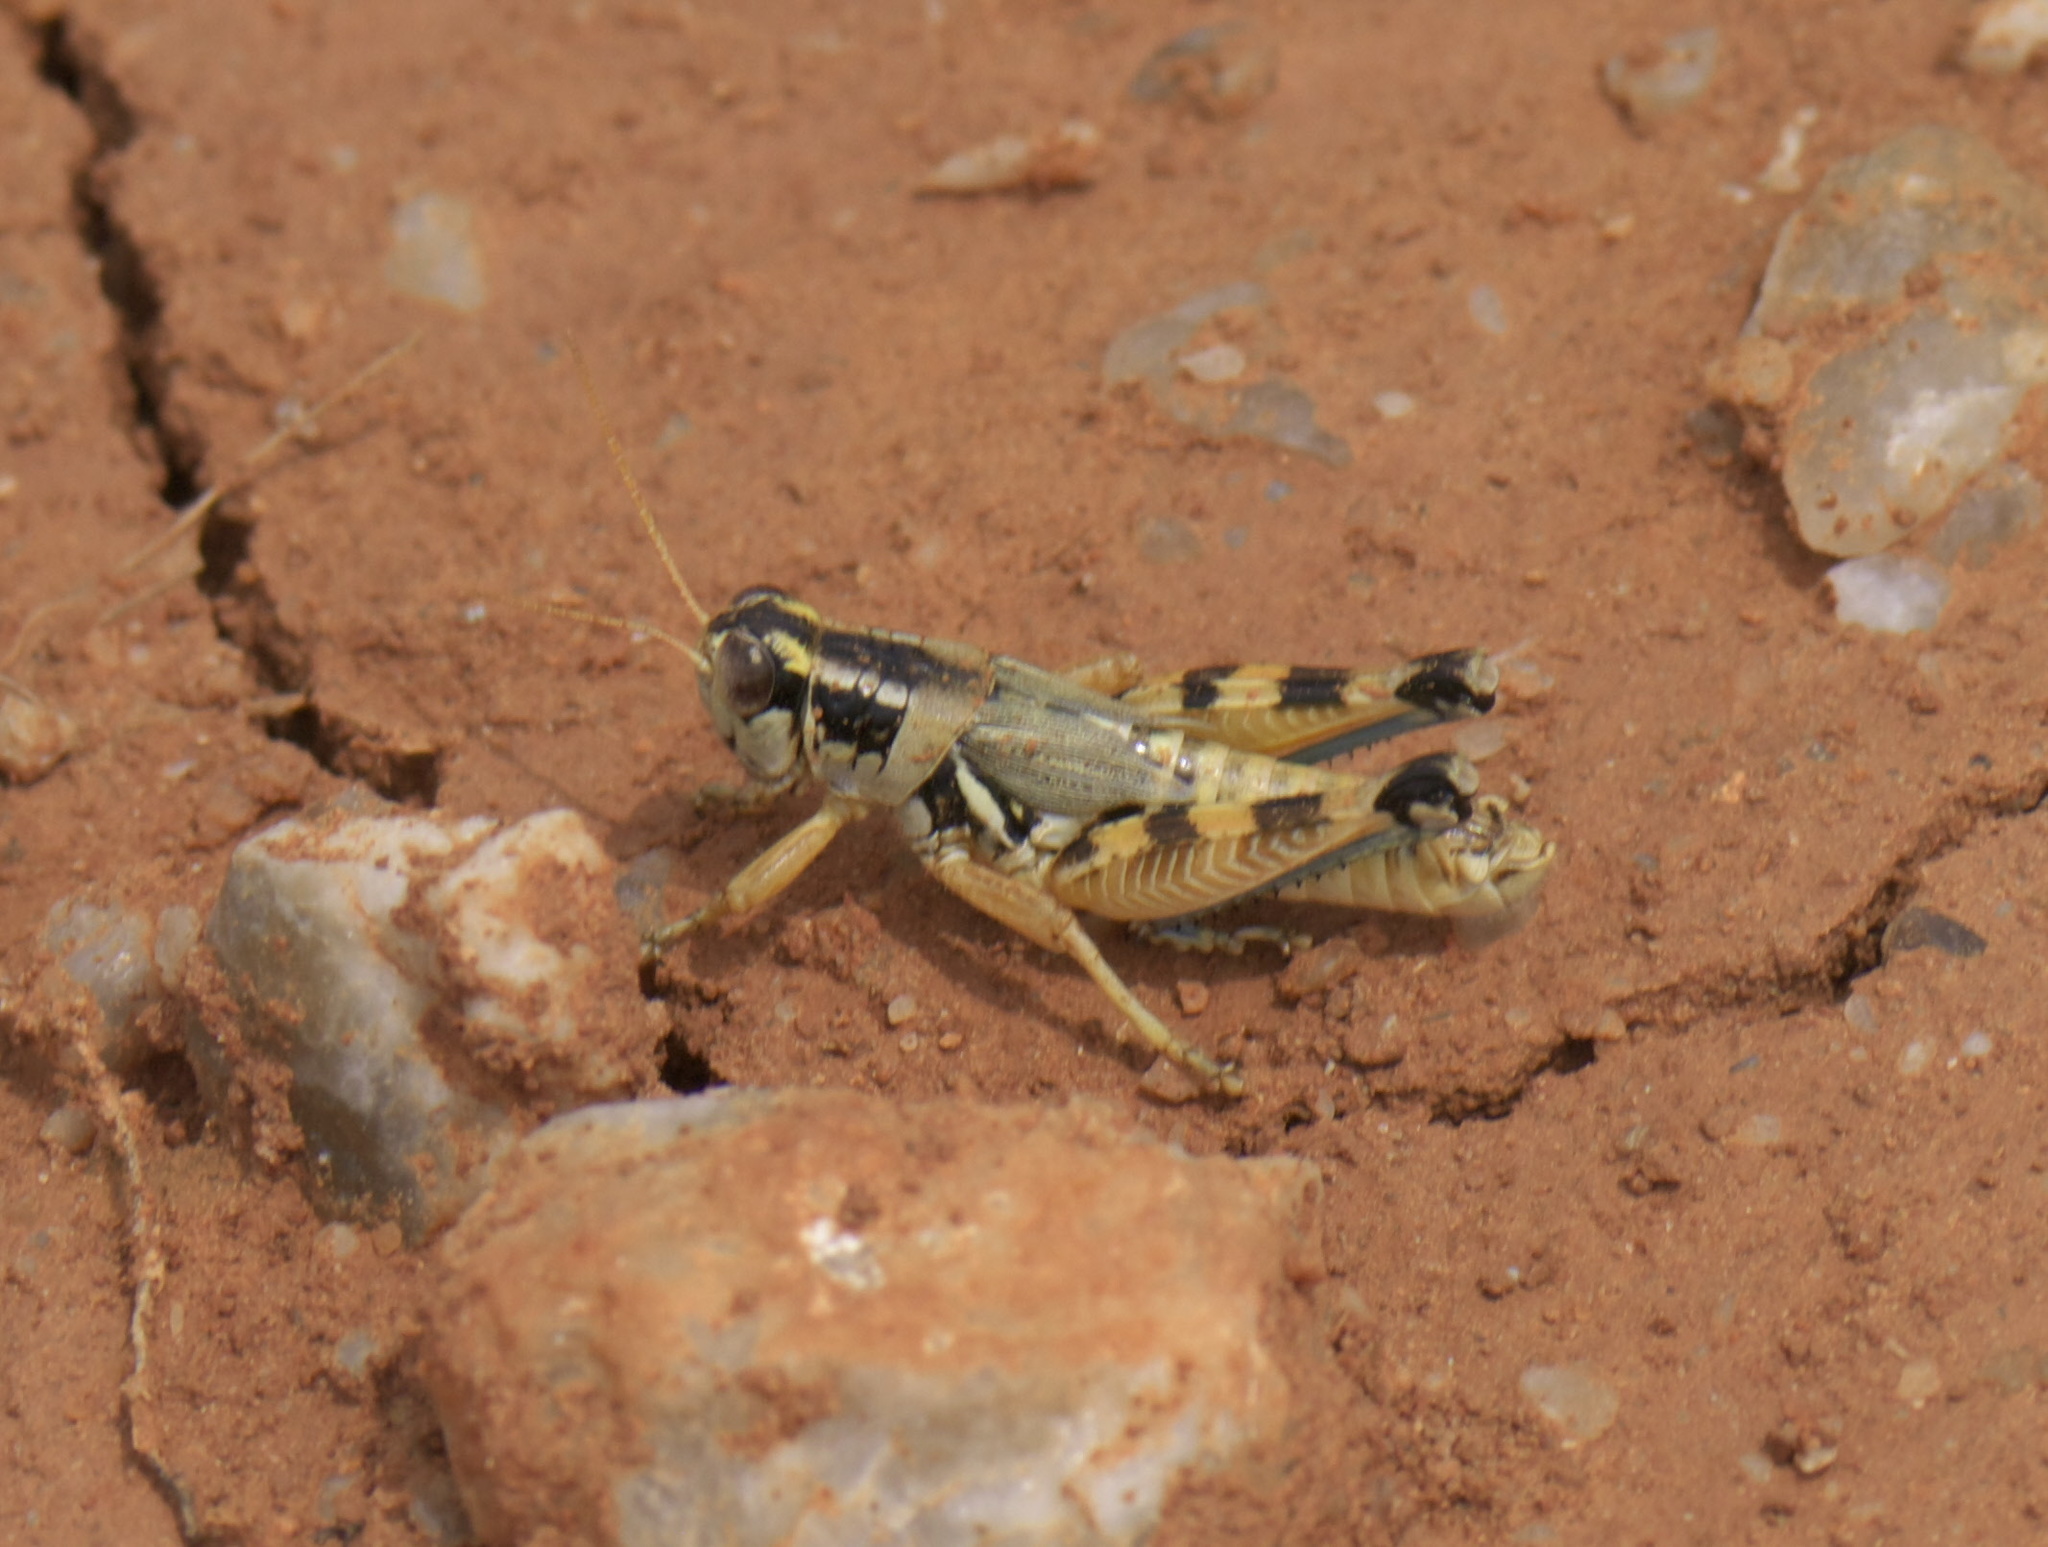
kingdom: Animalia
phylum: Arthropoda
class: Insecta
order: Orthoptera
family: Acrididae
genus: Melanoplus
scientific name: Melanoplus lakinus
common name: Lakin grasshopper
